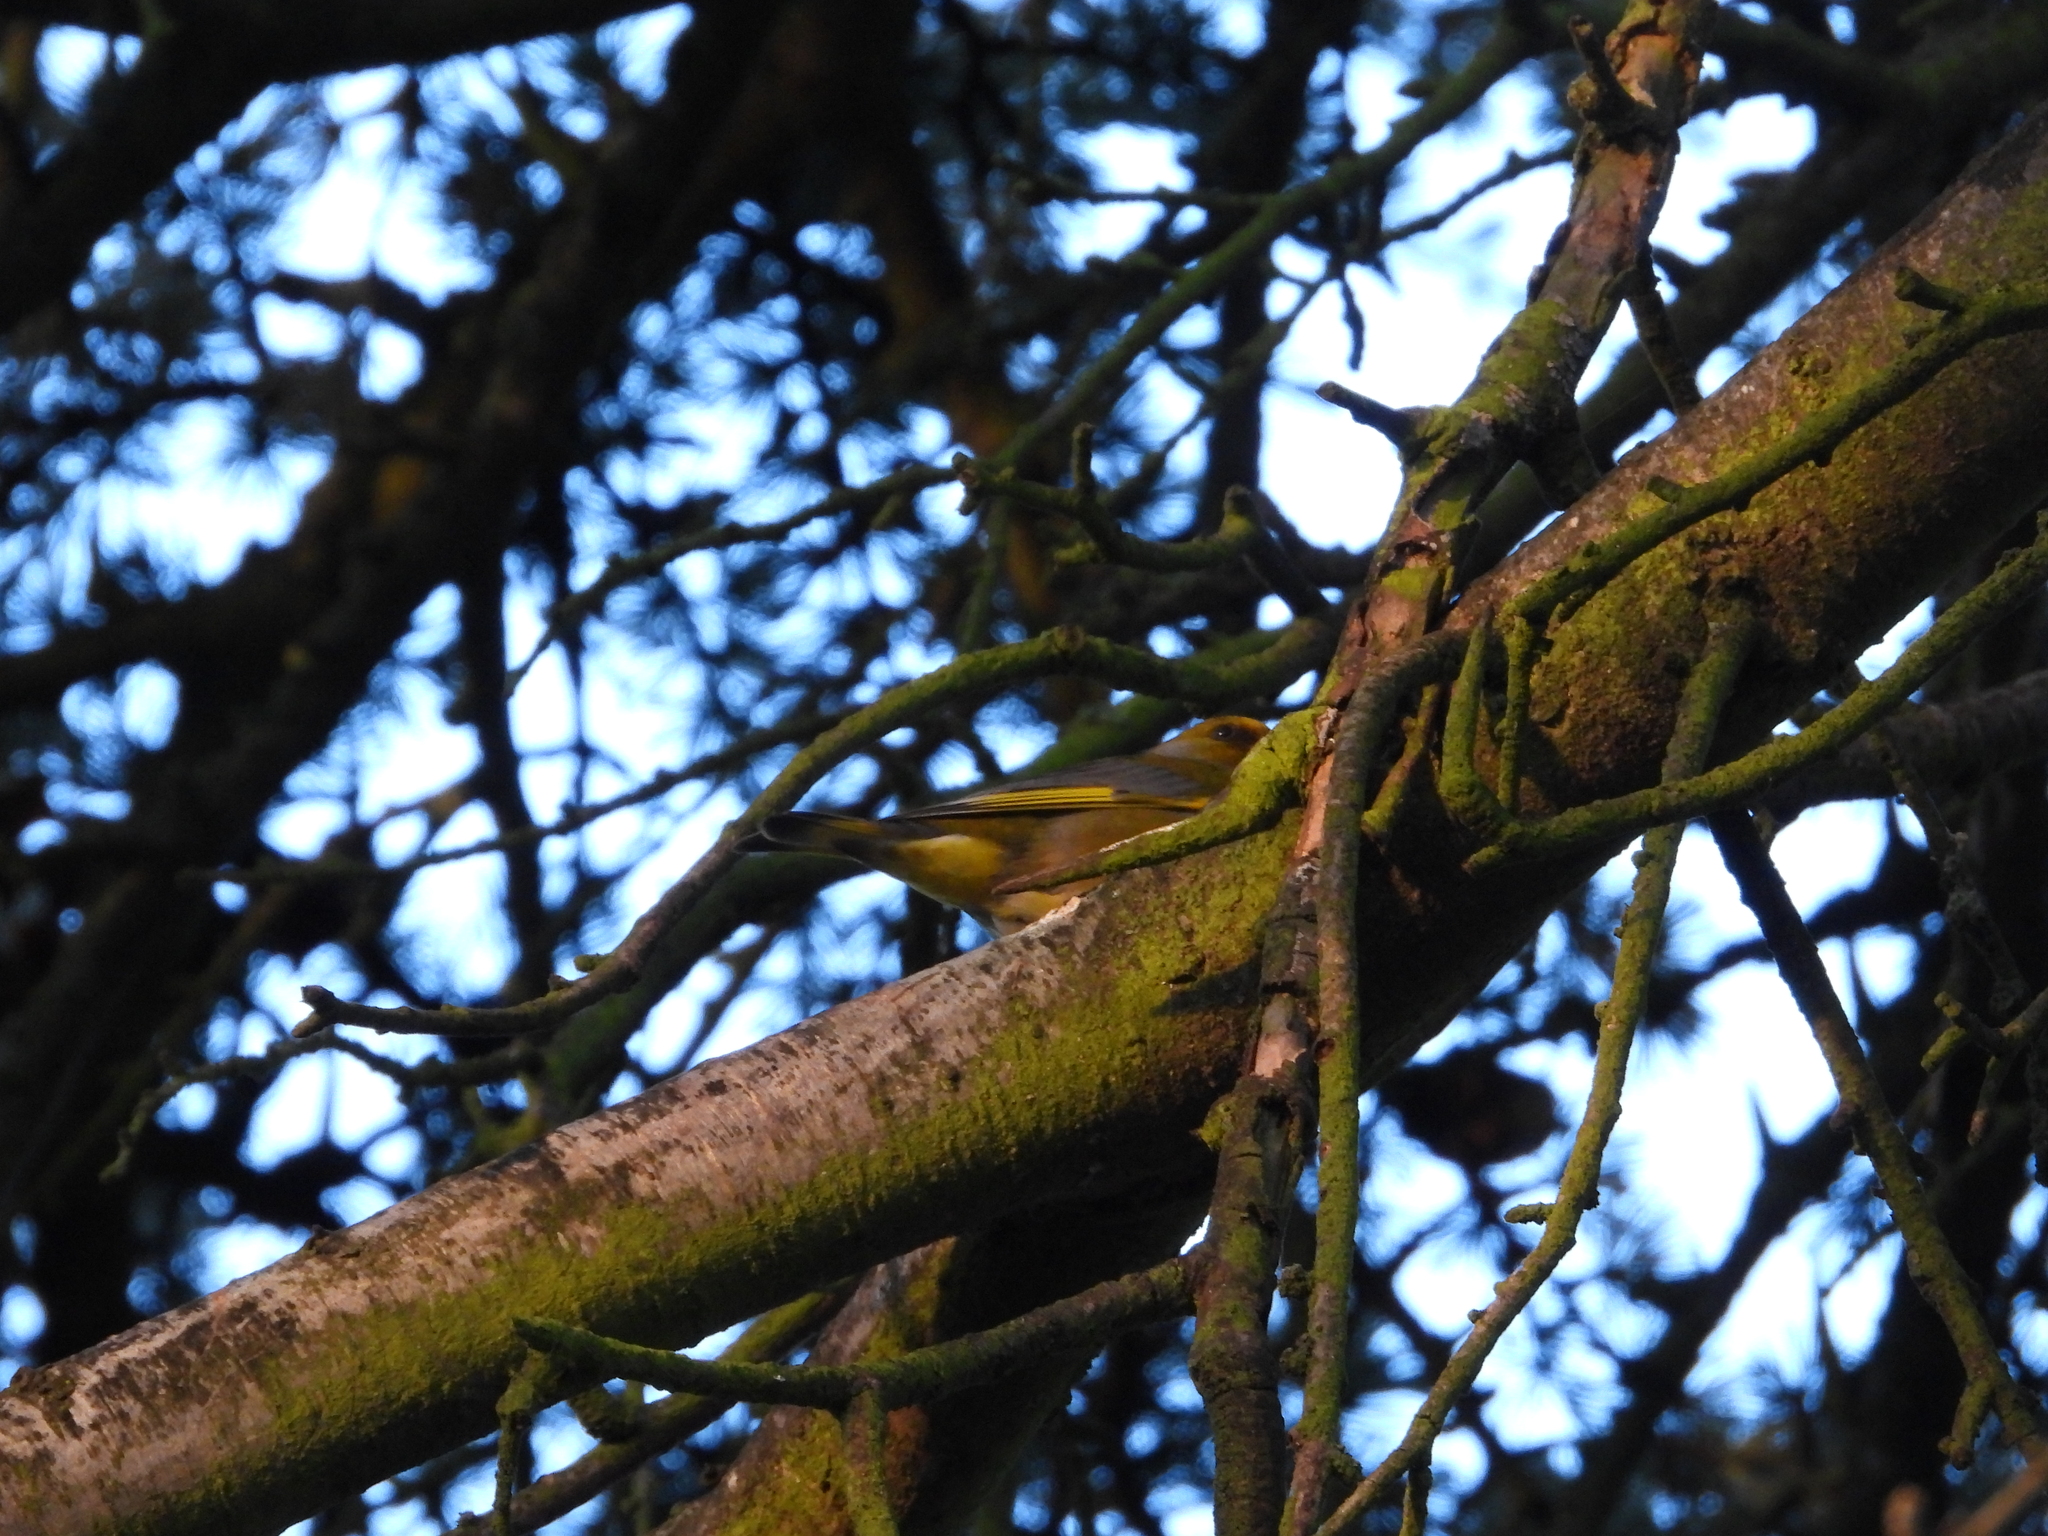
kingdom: Plantae
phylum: Tracheophyta
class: Liliopsida
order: Poales
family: Poaceae
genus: Chloris
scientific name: Chloris chloris
